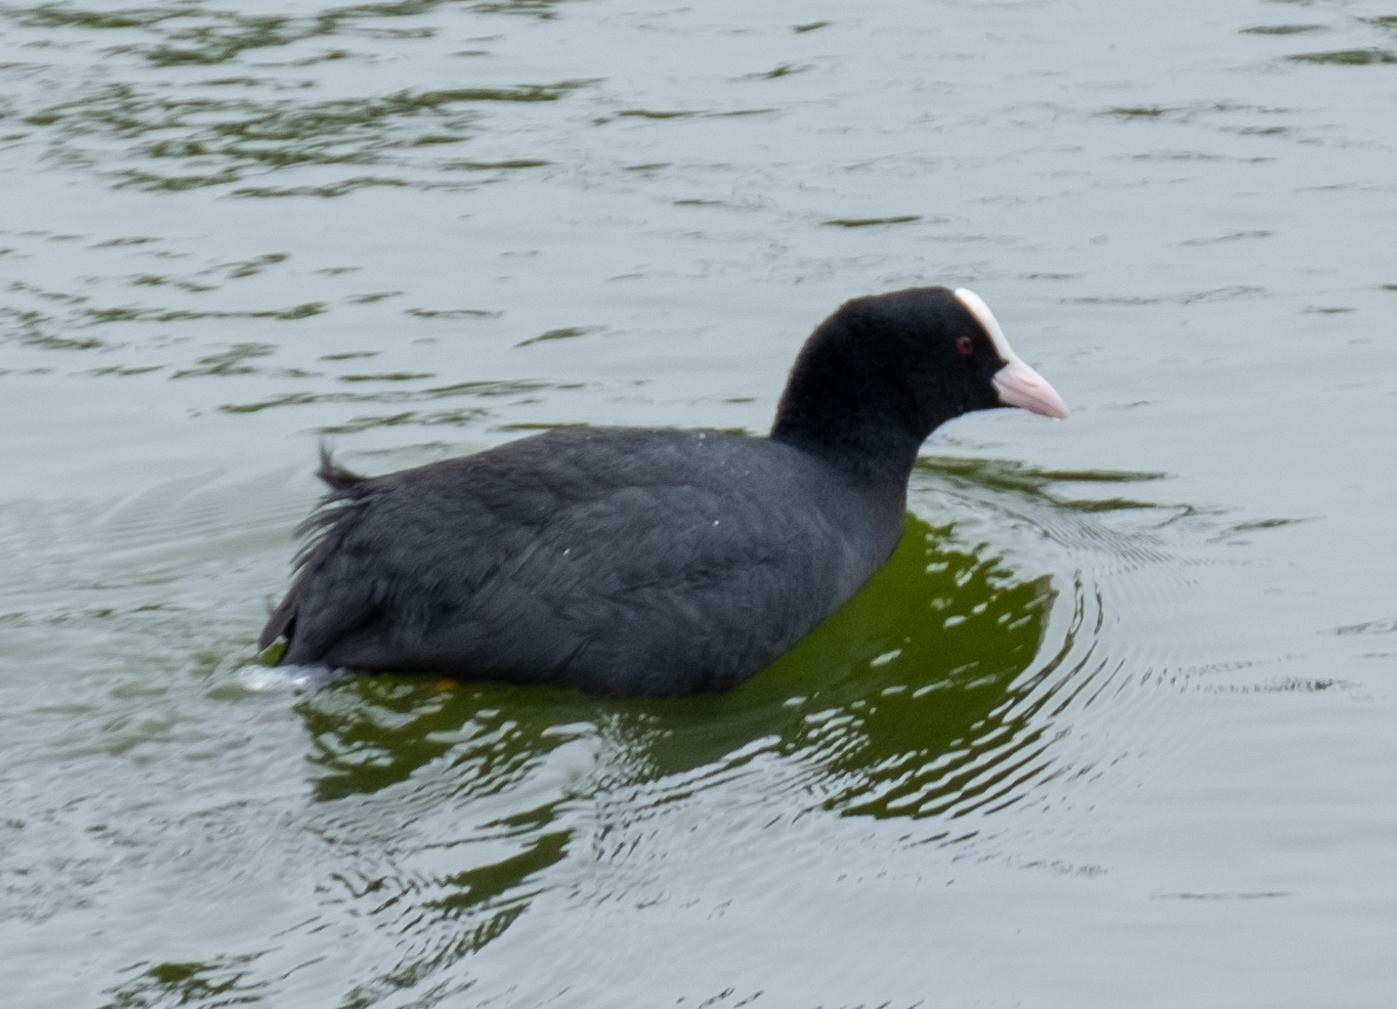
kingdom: Animalia
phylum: Chordata
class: Aves
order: Gruiformes
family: Rallidae
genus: Fulica
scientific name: Fulica atra
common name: Eurasian coot
